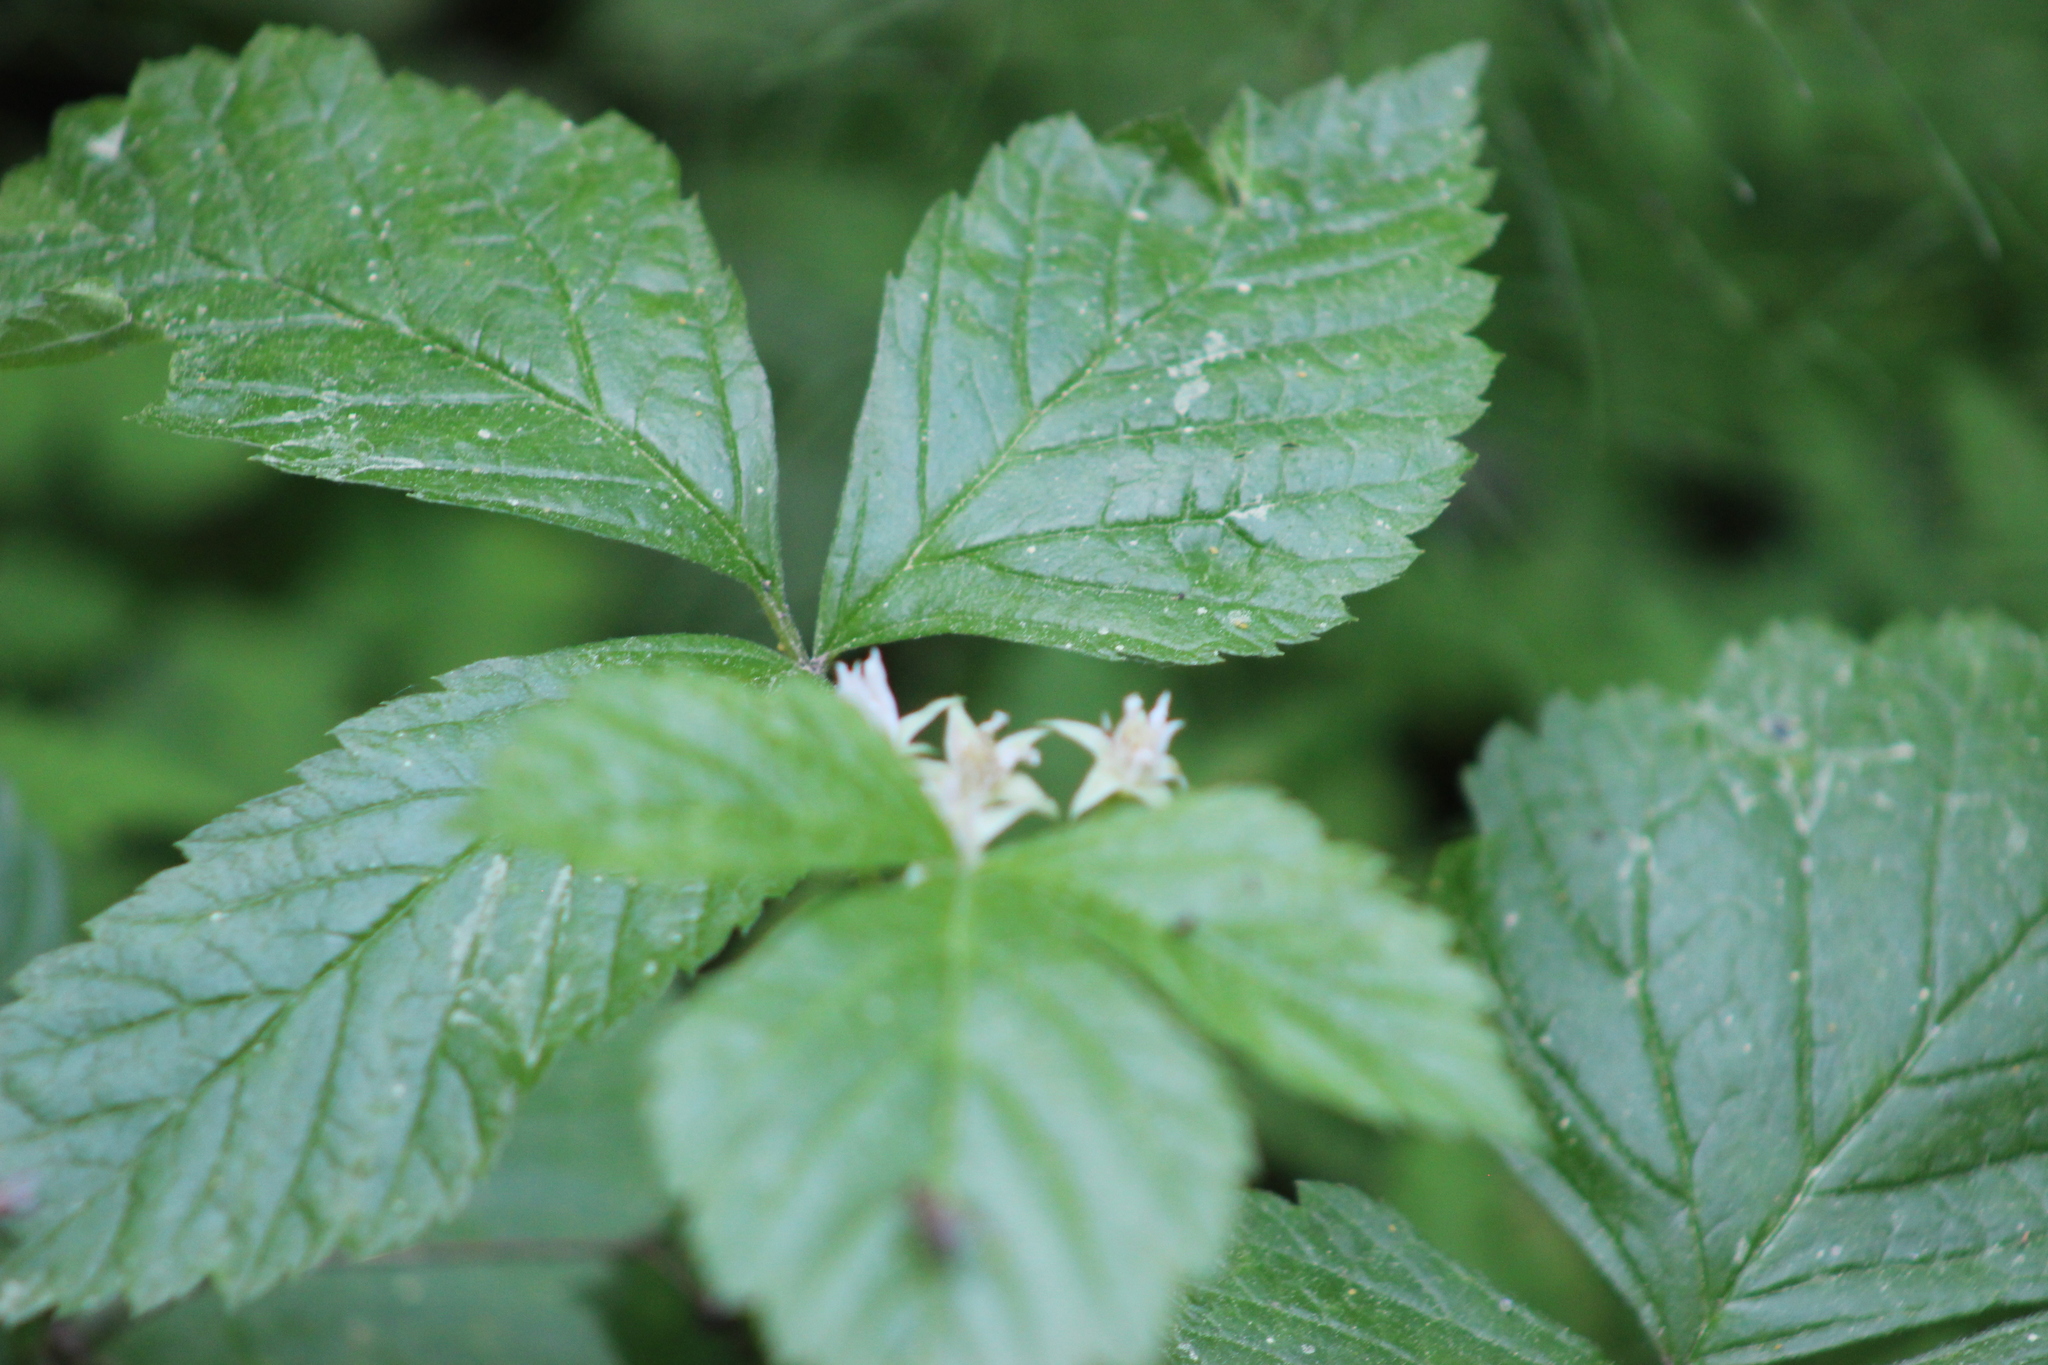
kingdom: Plantae
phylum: Tracheophyta
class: Magnoliopsida
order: Rosales
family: Rosaceae
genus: Rubus
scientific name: Rubus saxatilis
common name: Stone bramble
